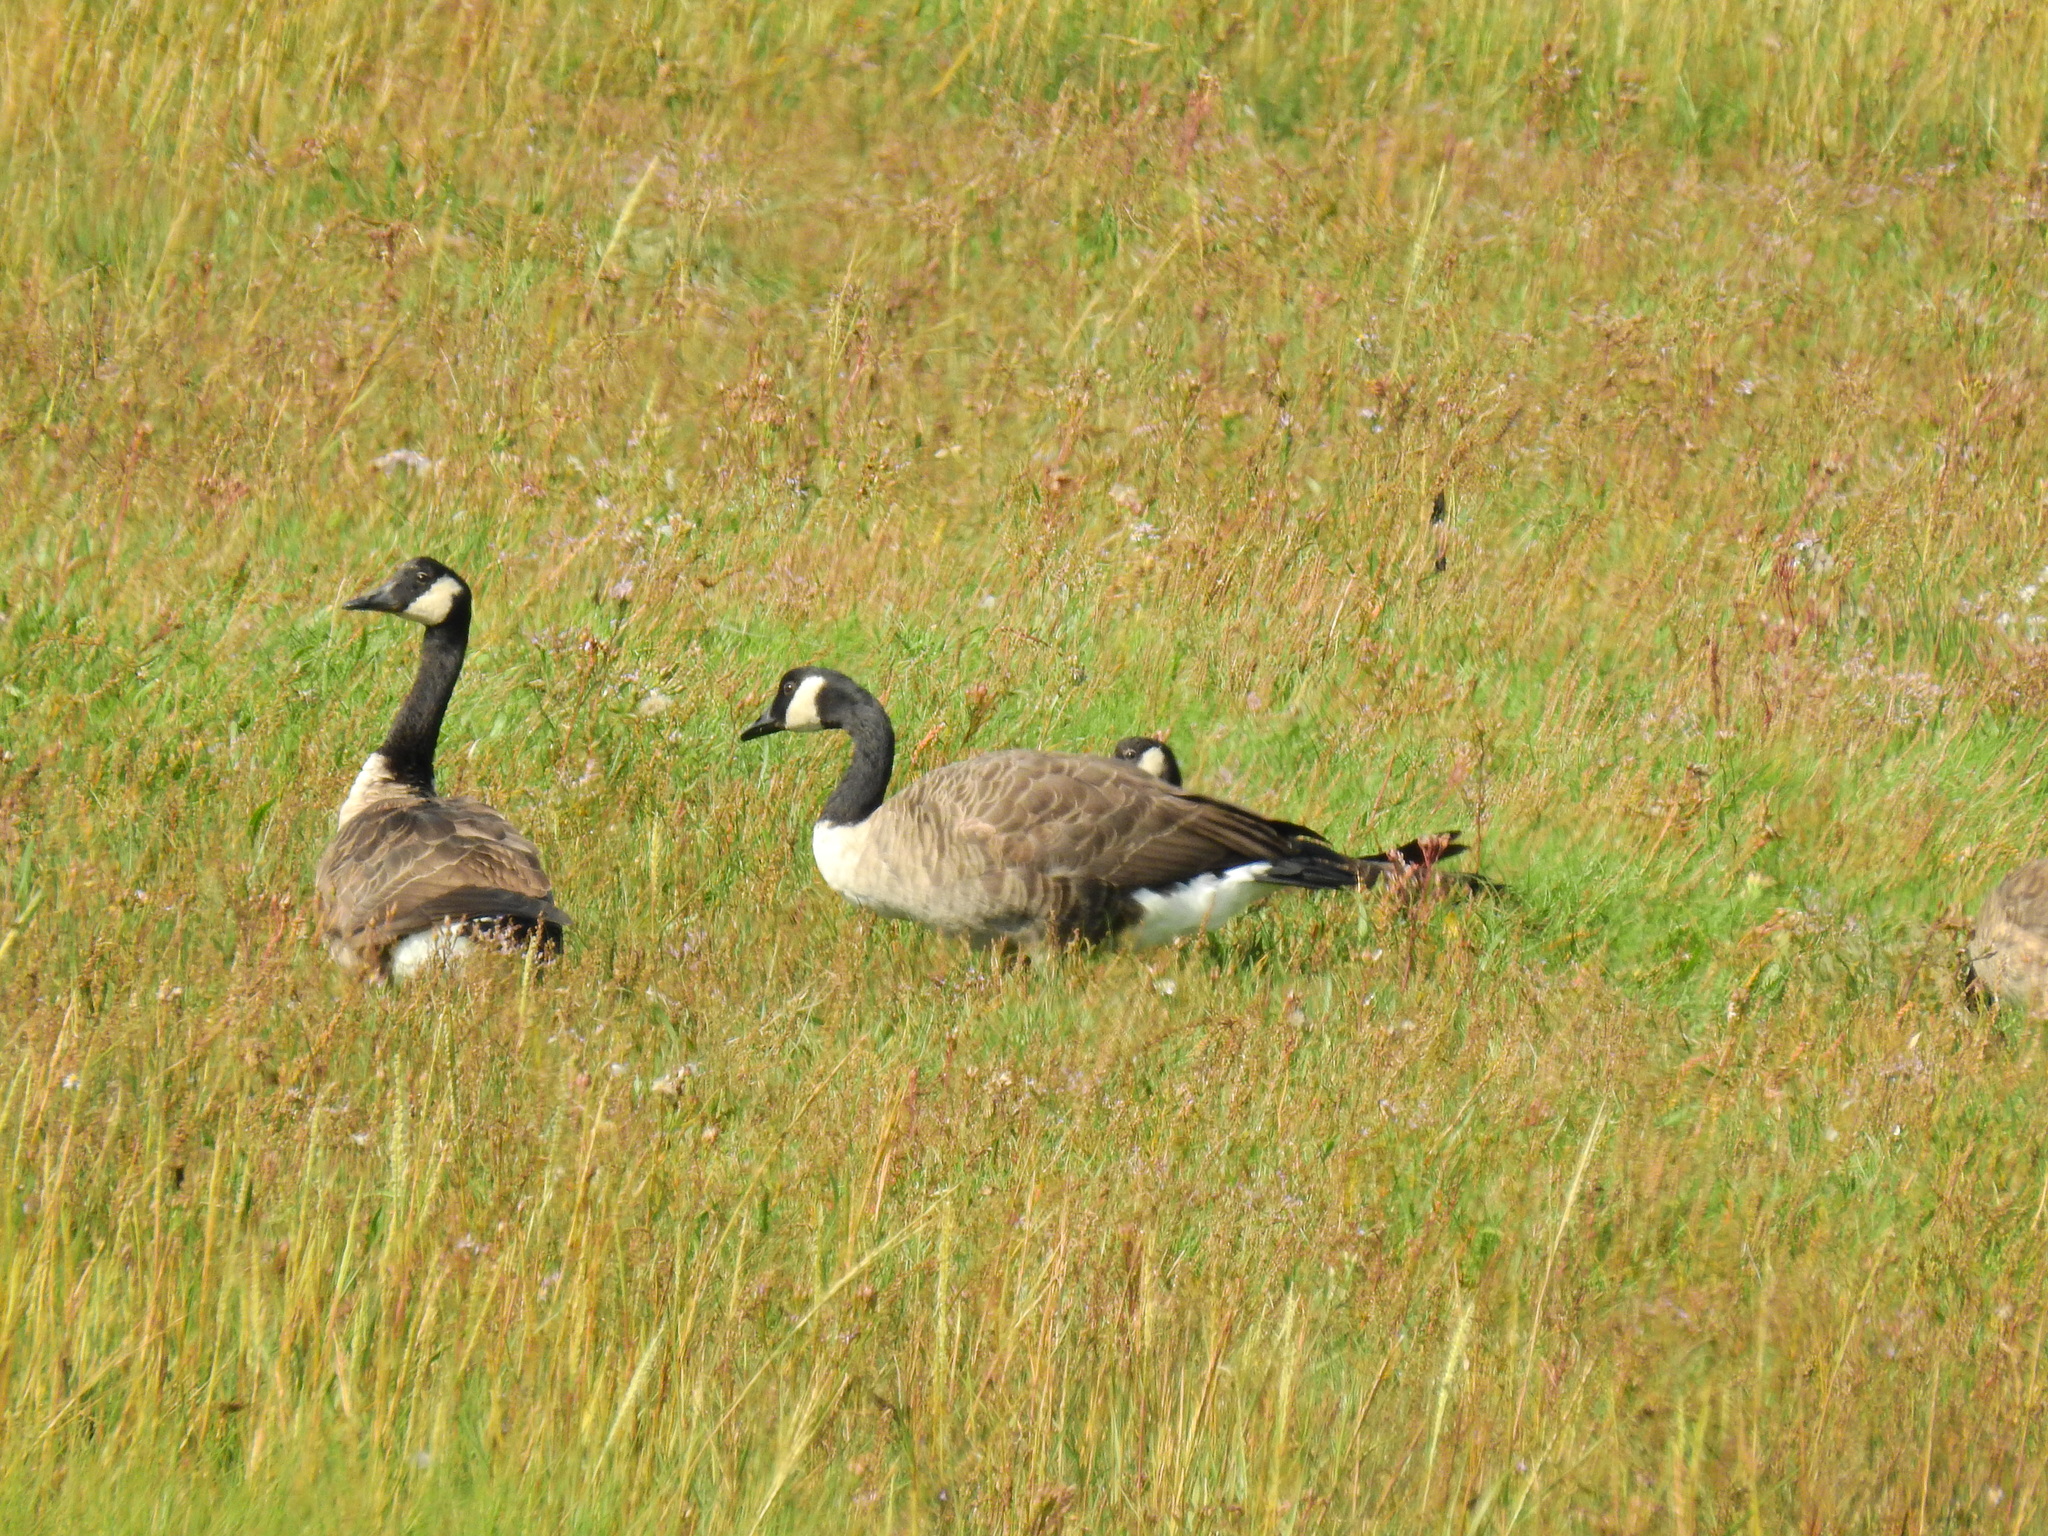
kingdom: Animalia
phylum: Chordata
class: Aves
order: Anseriformes
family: Anatidae
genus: Branta
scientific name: Branta canadensis
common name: Canada goose
